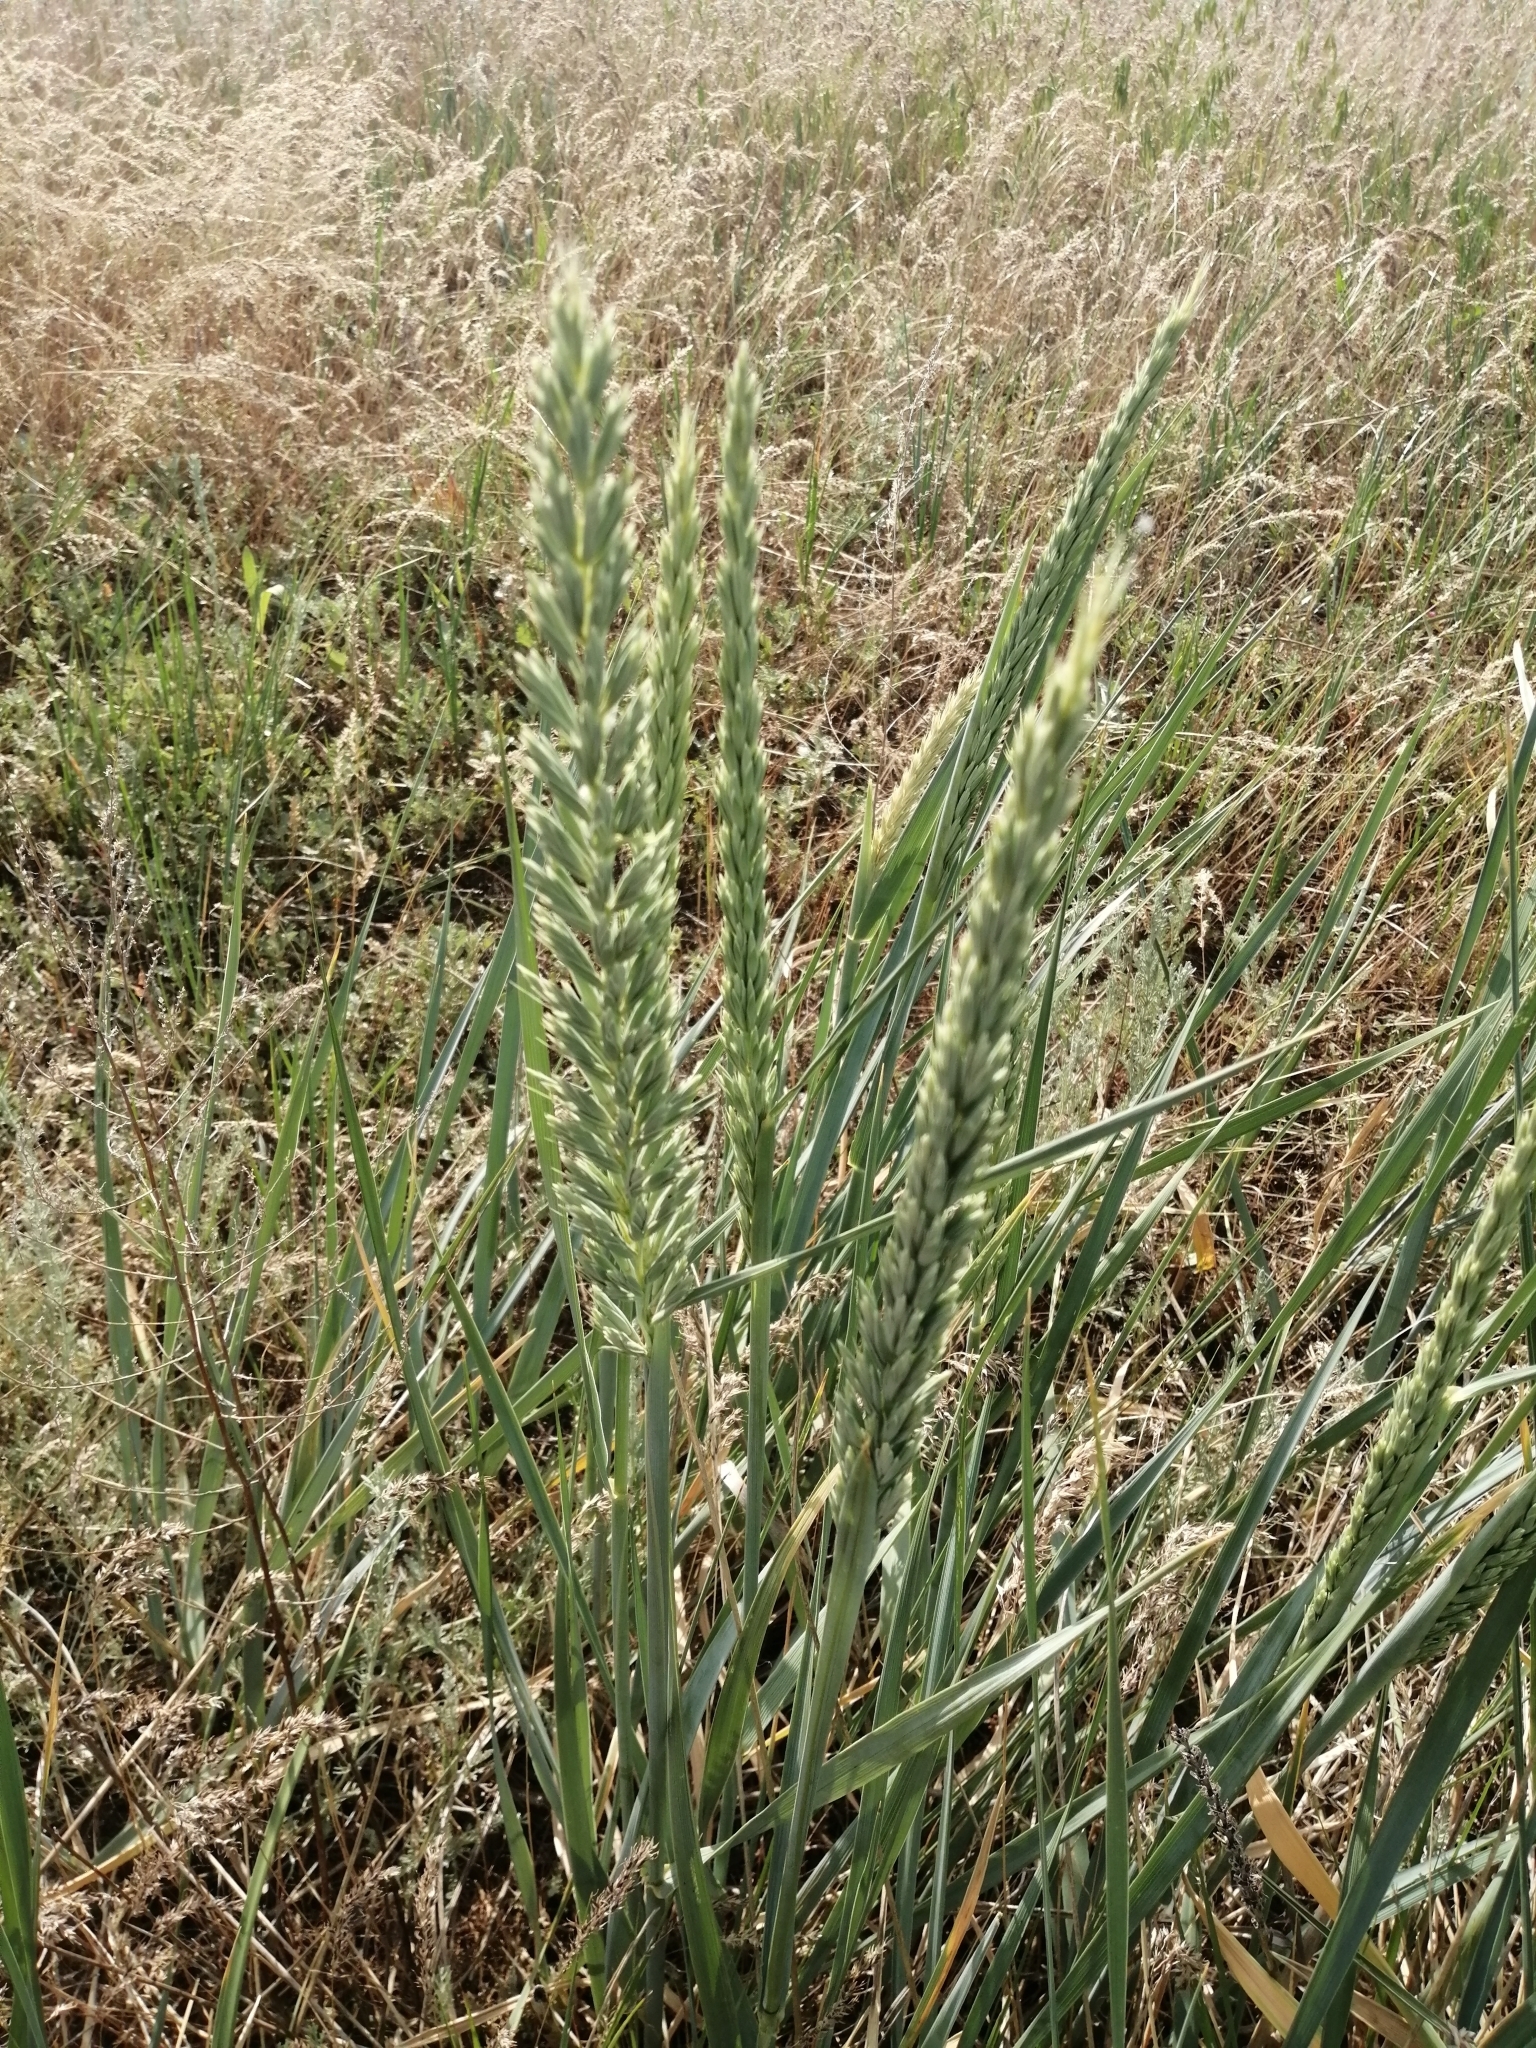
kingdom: Plantae
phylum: Tracheophyta
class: Liliopsida
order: Poales
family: Poaceae
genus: Leymus
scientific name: Leymus racemosus
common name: Mammoth wildrye
